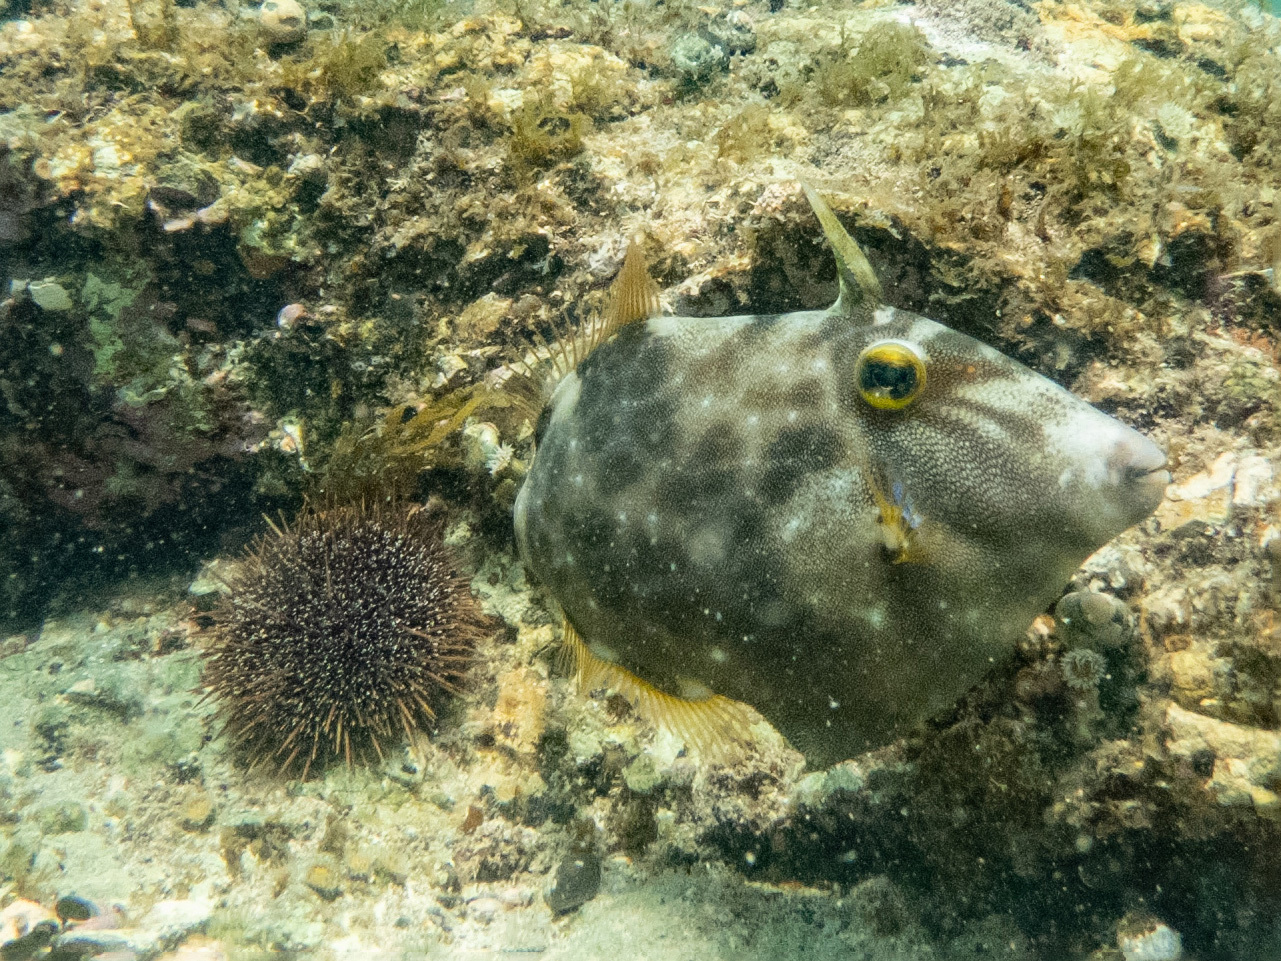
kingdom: Animalia
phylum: Chordata
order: Tetraodontiformes
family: Monacanthidae
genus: Meuschenia
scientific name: Meuschenia scaber
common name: Cosmopolitan leatherjacket
